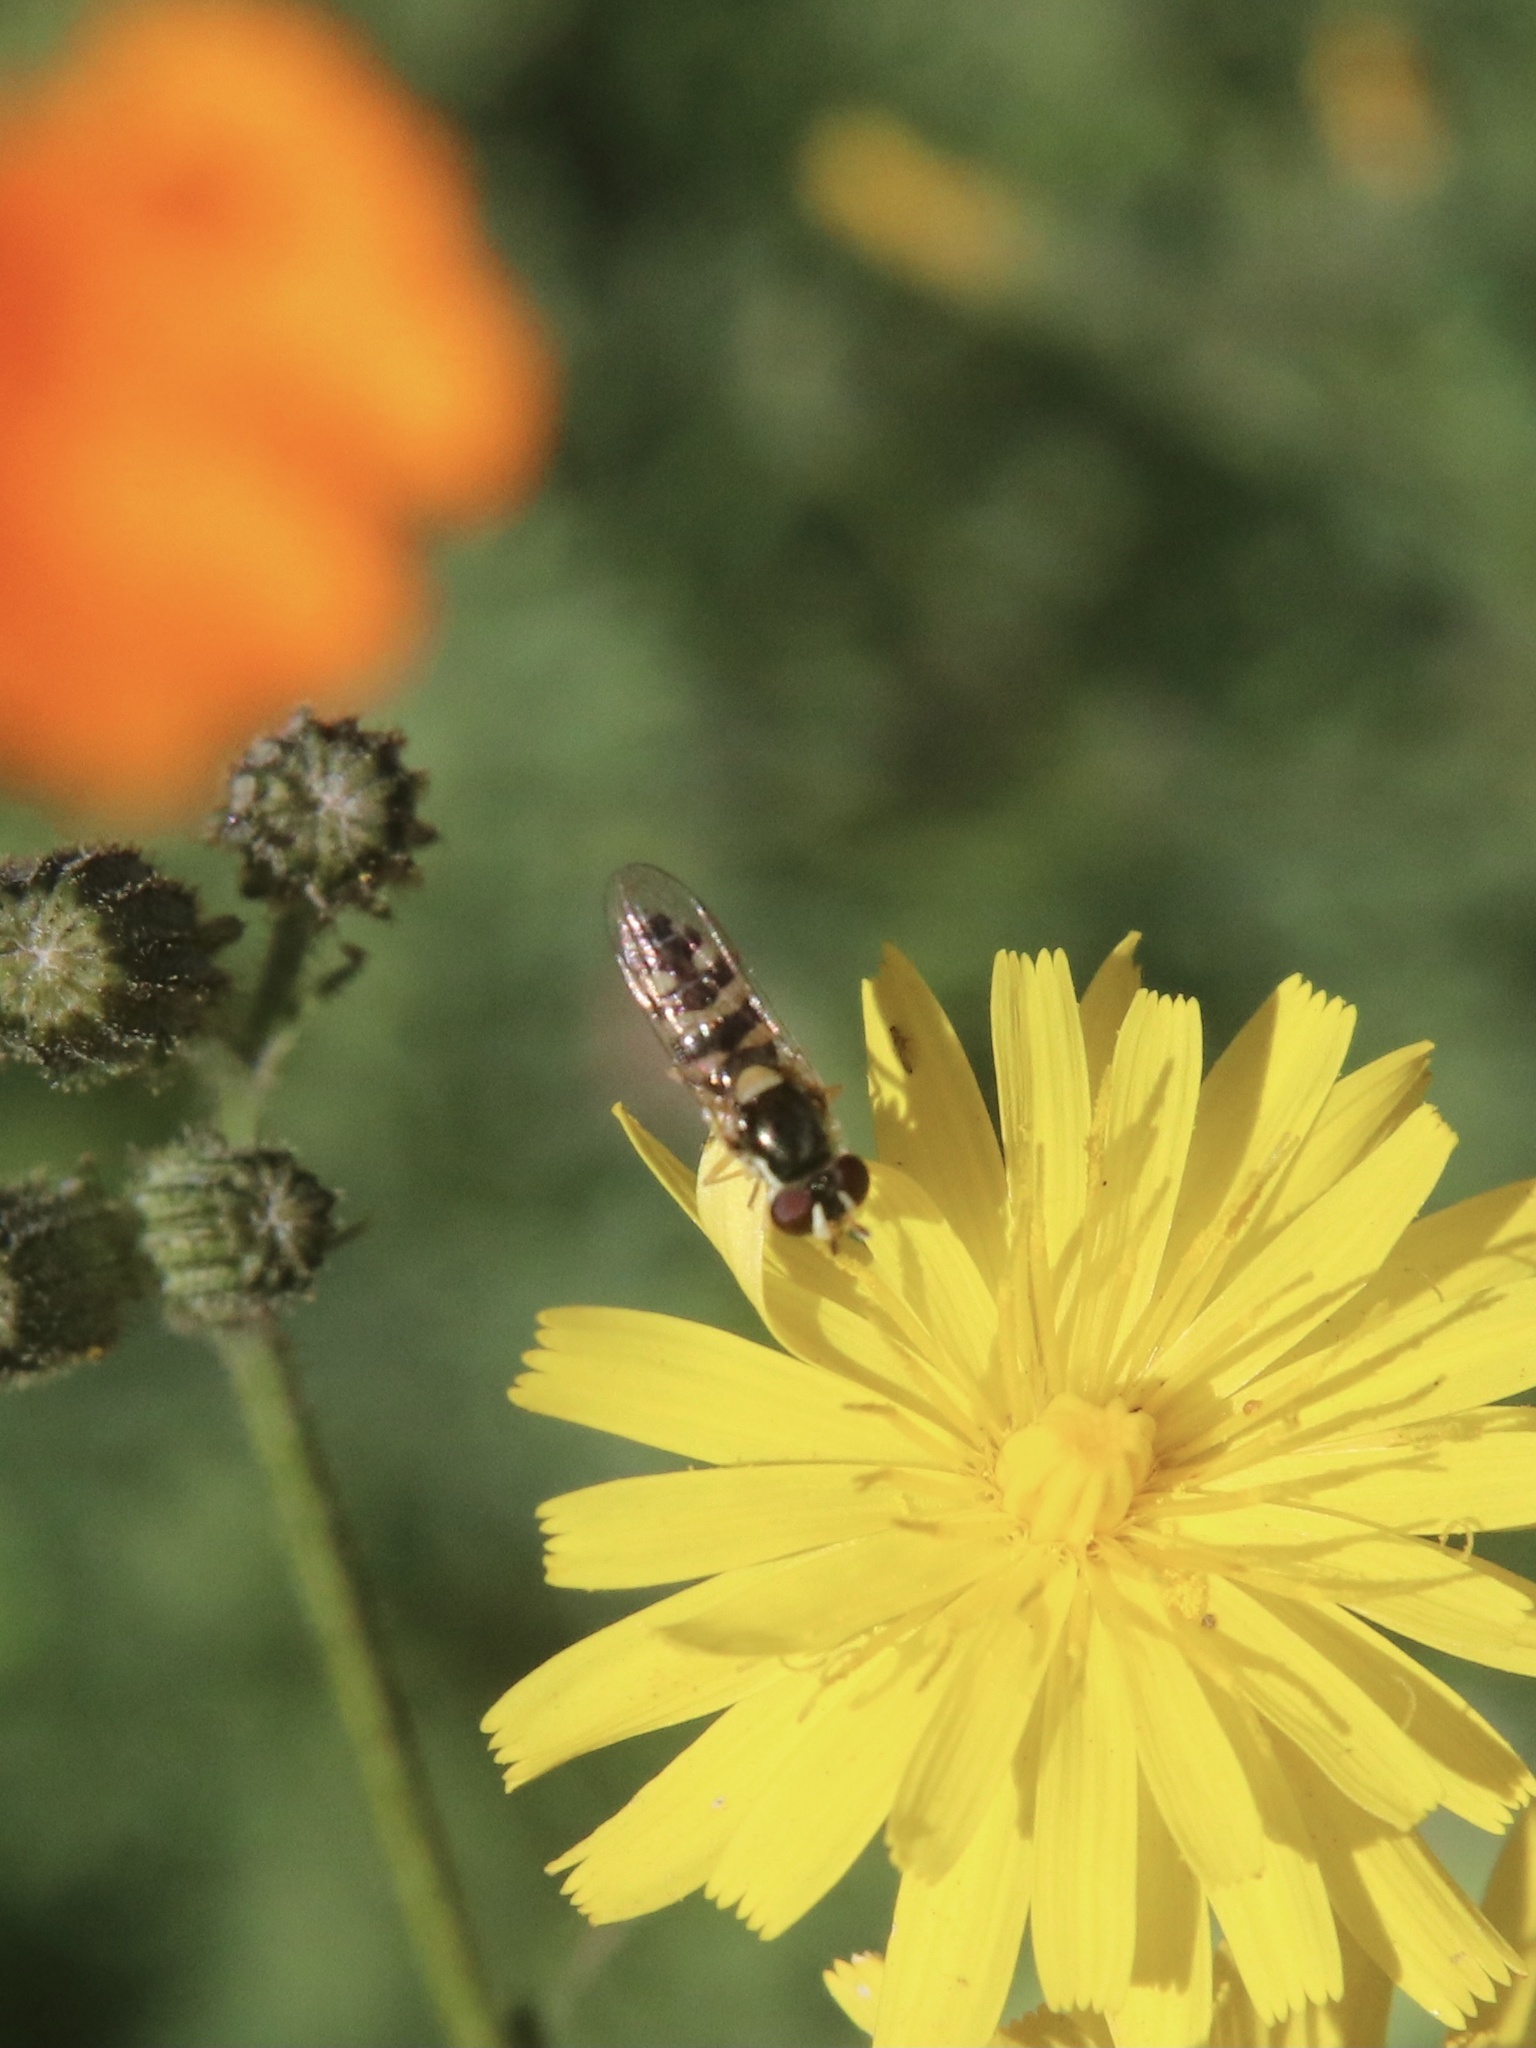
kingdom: Animalia
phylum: Arthropoda
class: Insecta
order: Diptera
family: Syrphidae
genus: Allograpta
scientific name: Allograpta pulchra
